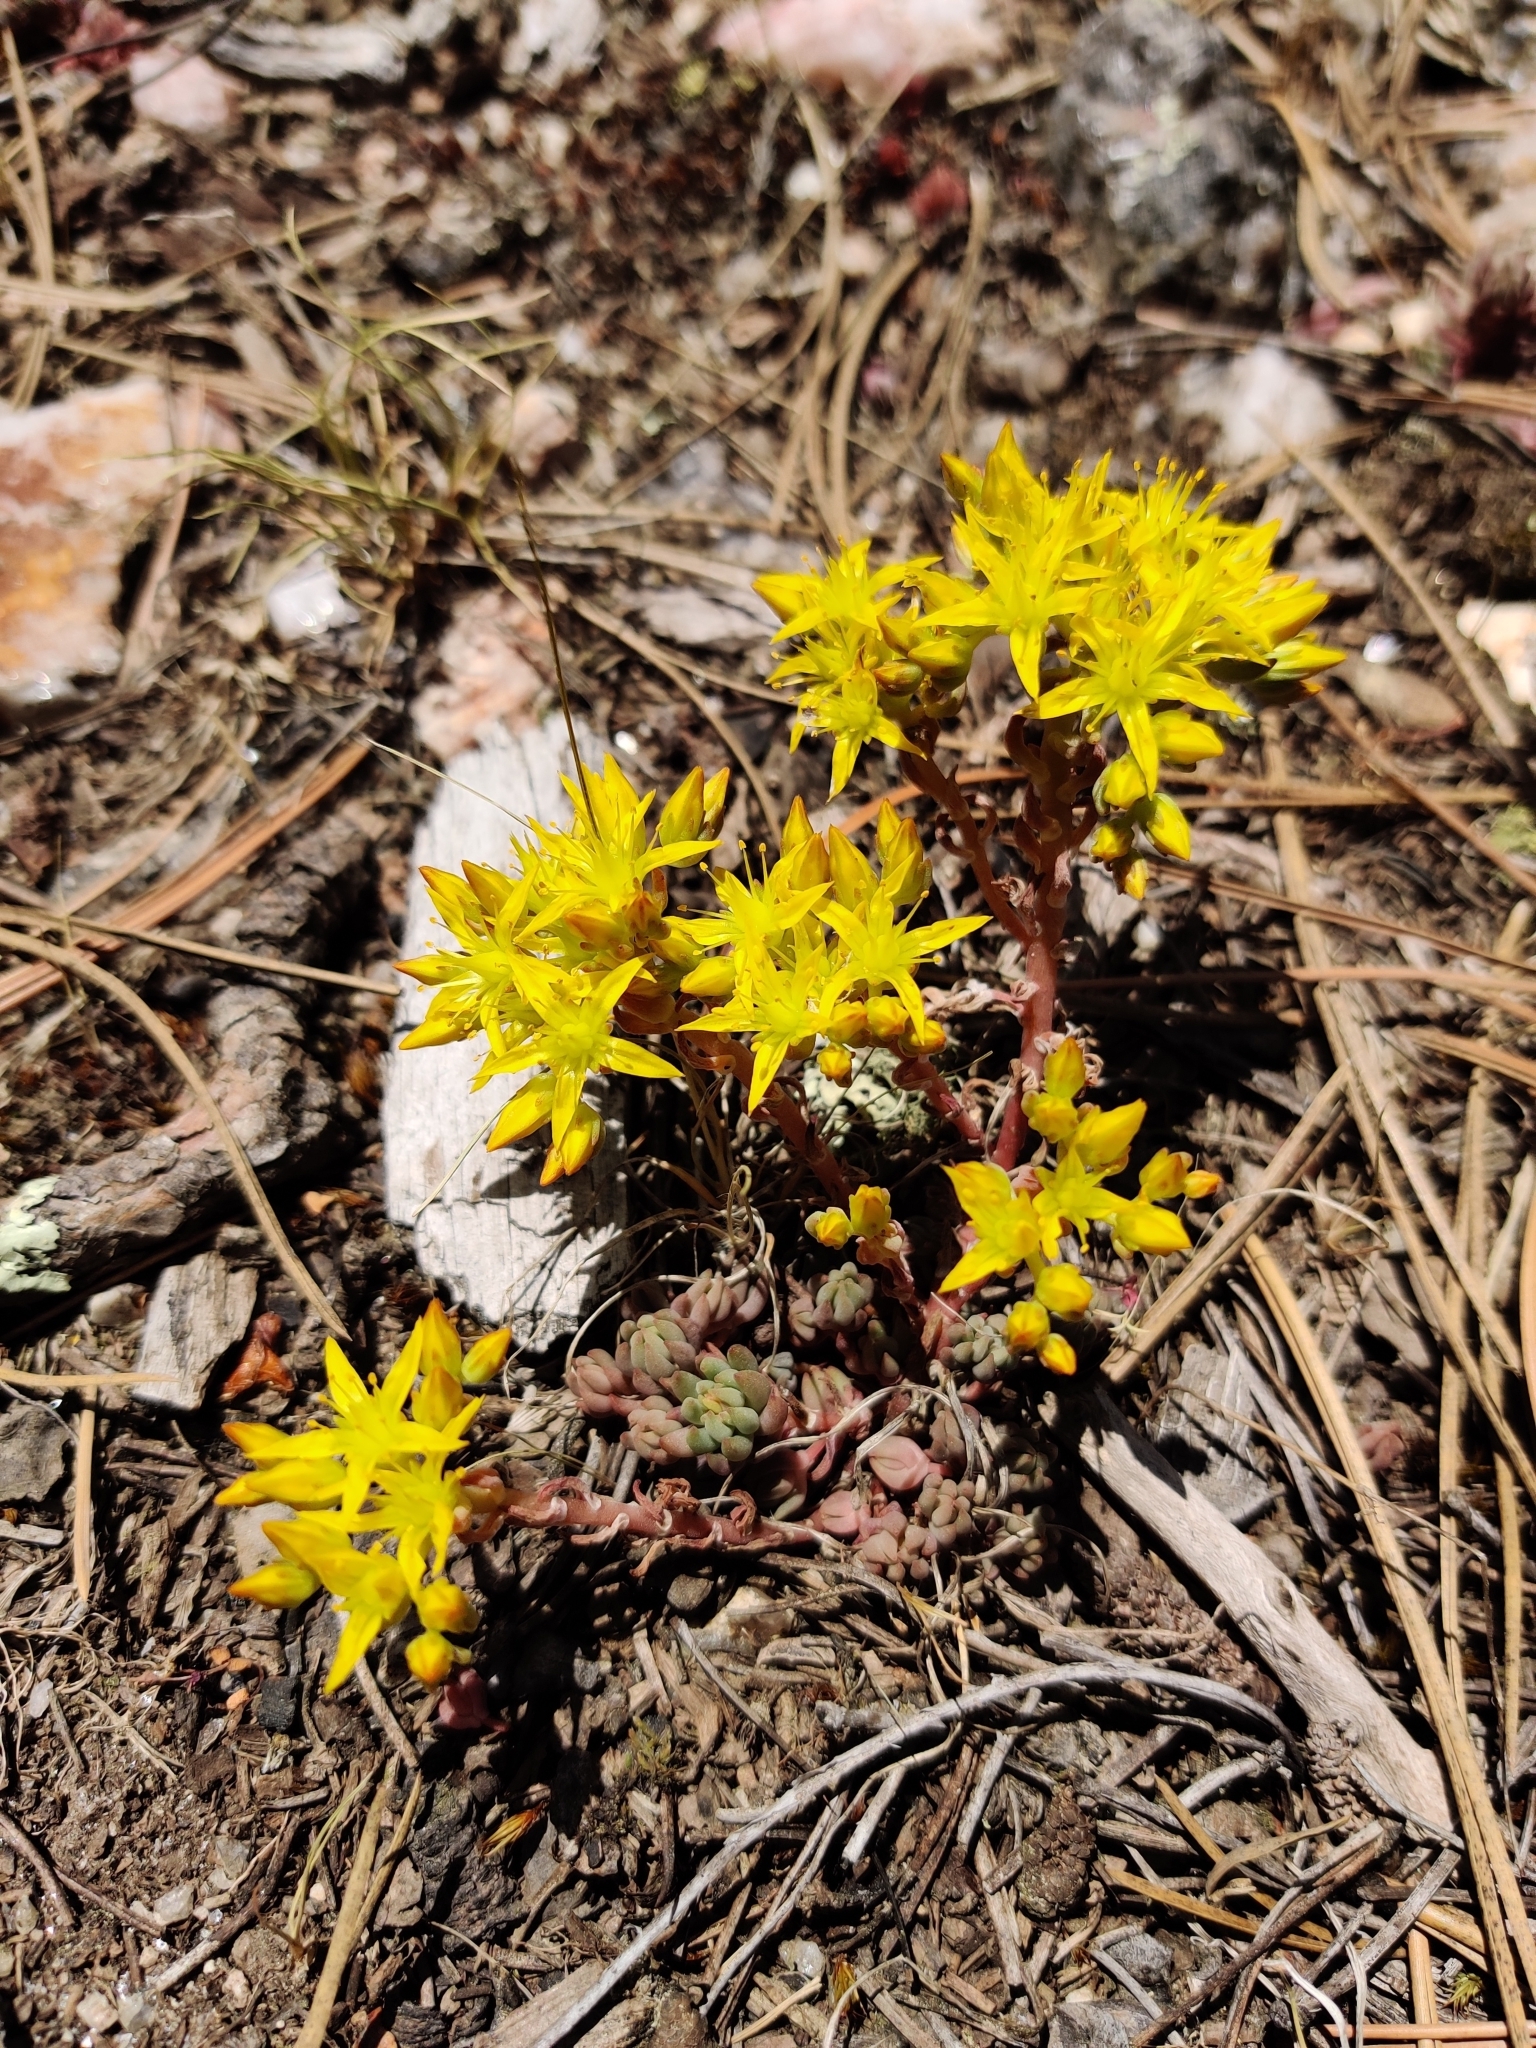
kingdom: Plantae
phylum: Tracheophyta
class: Magnoliopsida
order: Saxifragales
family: Crassulaceae
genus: Sedum
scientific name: Sedum lanceolatum
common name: Common stonecrop
